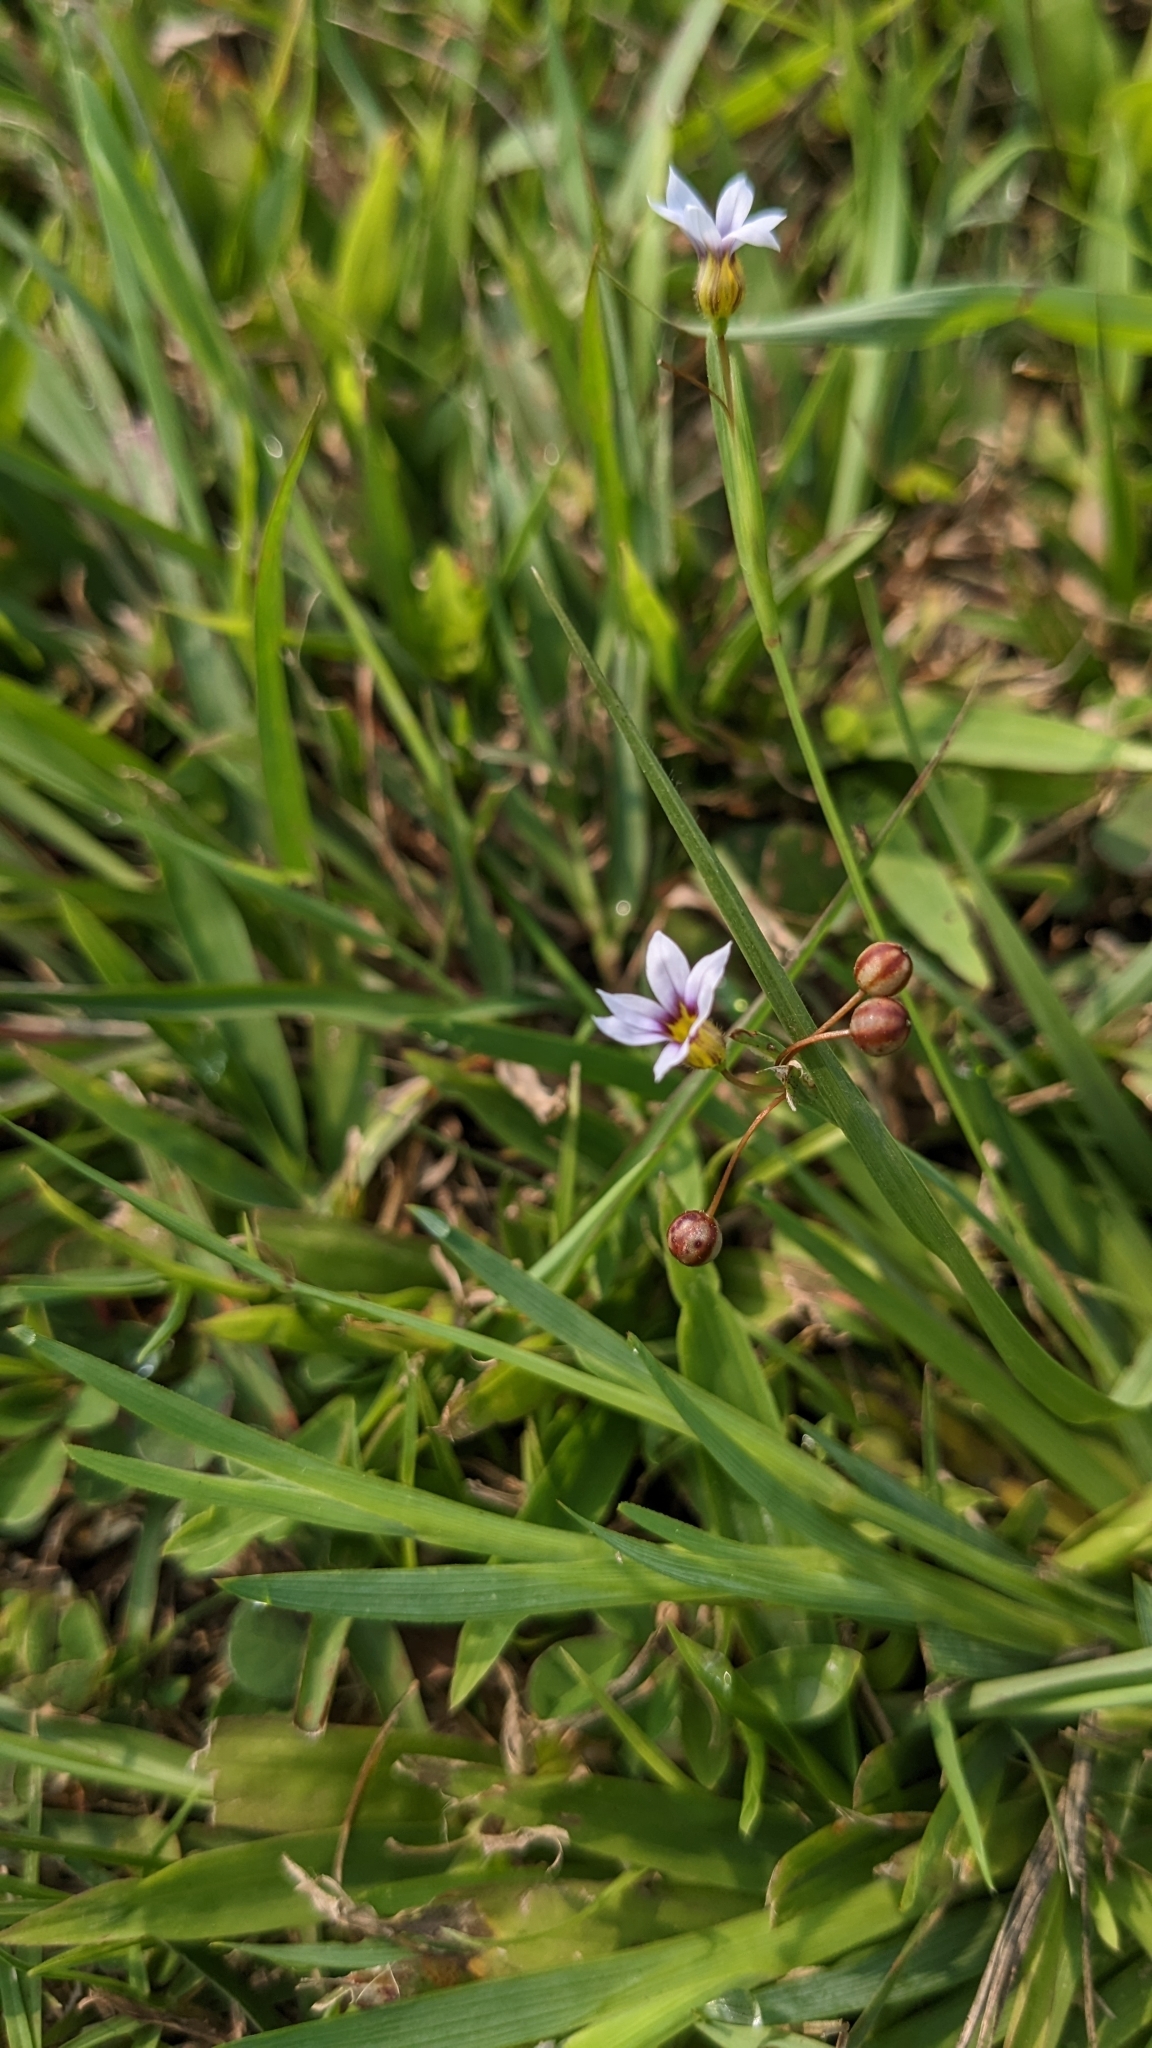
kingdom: Plantae
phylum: Tracheophyta
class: Liliopsida
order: Asparagales
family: Iridaceae
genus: Sisyrinchium
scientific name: Sisyrinchium micranthum
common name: Bermuda pigroot
